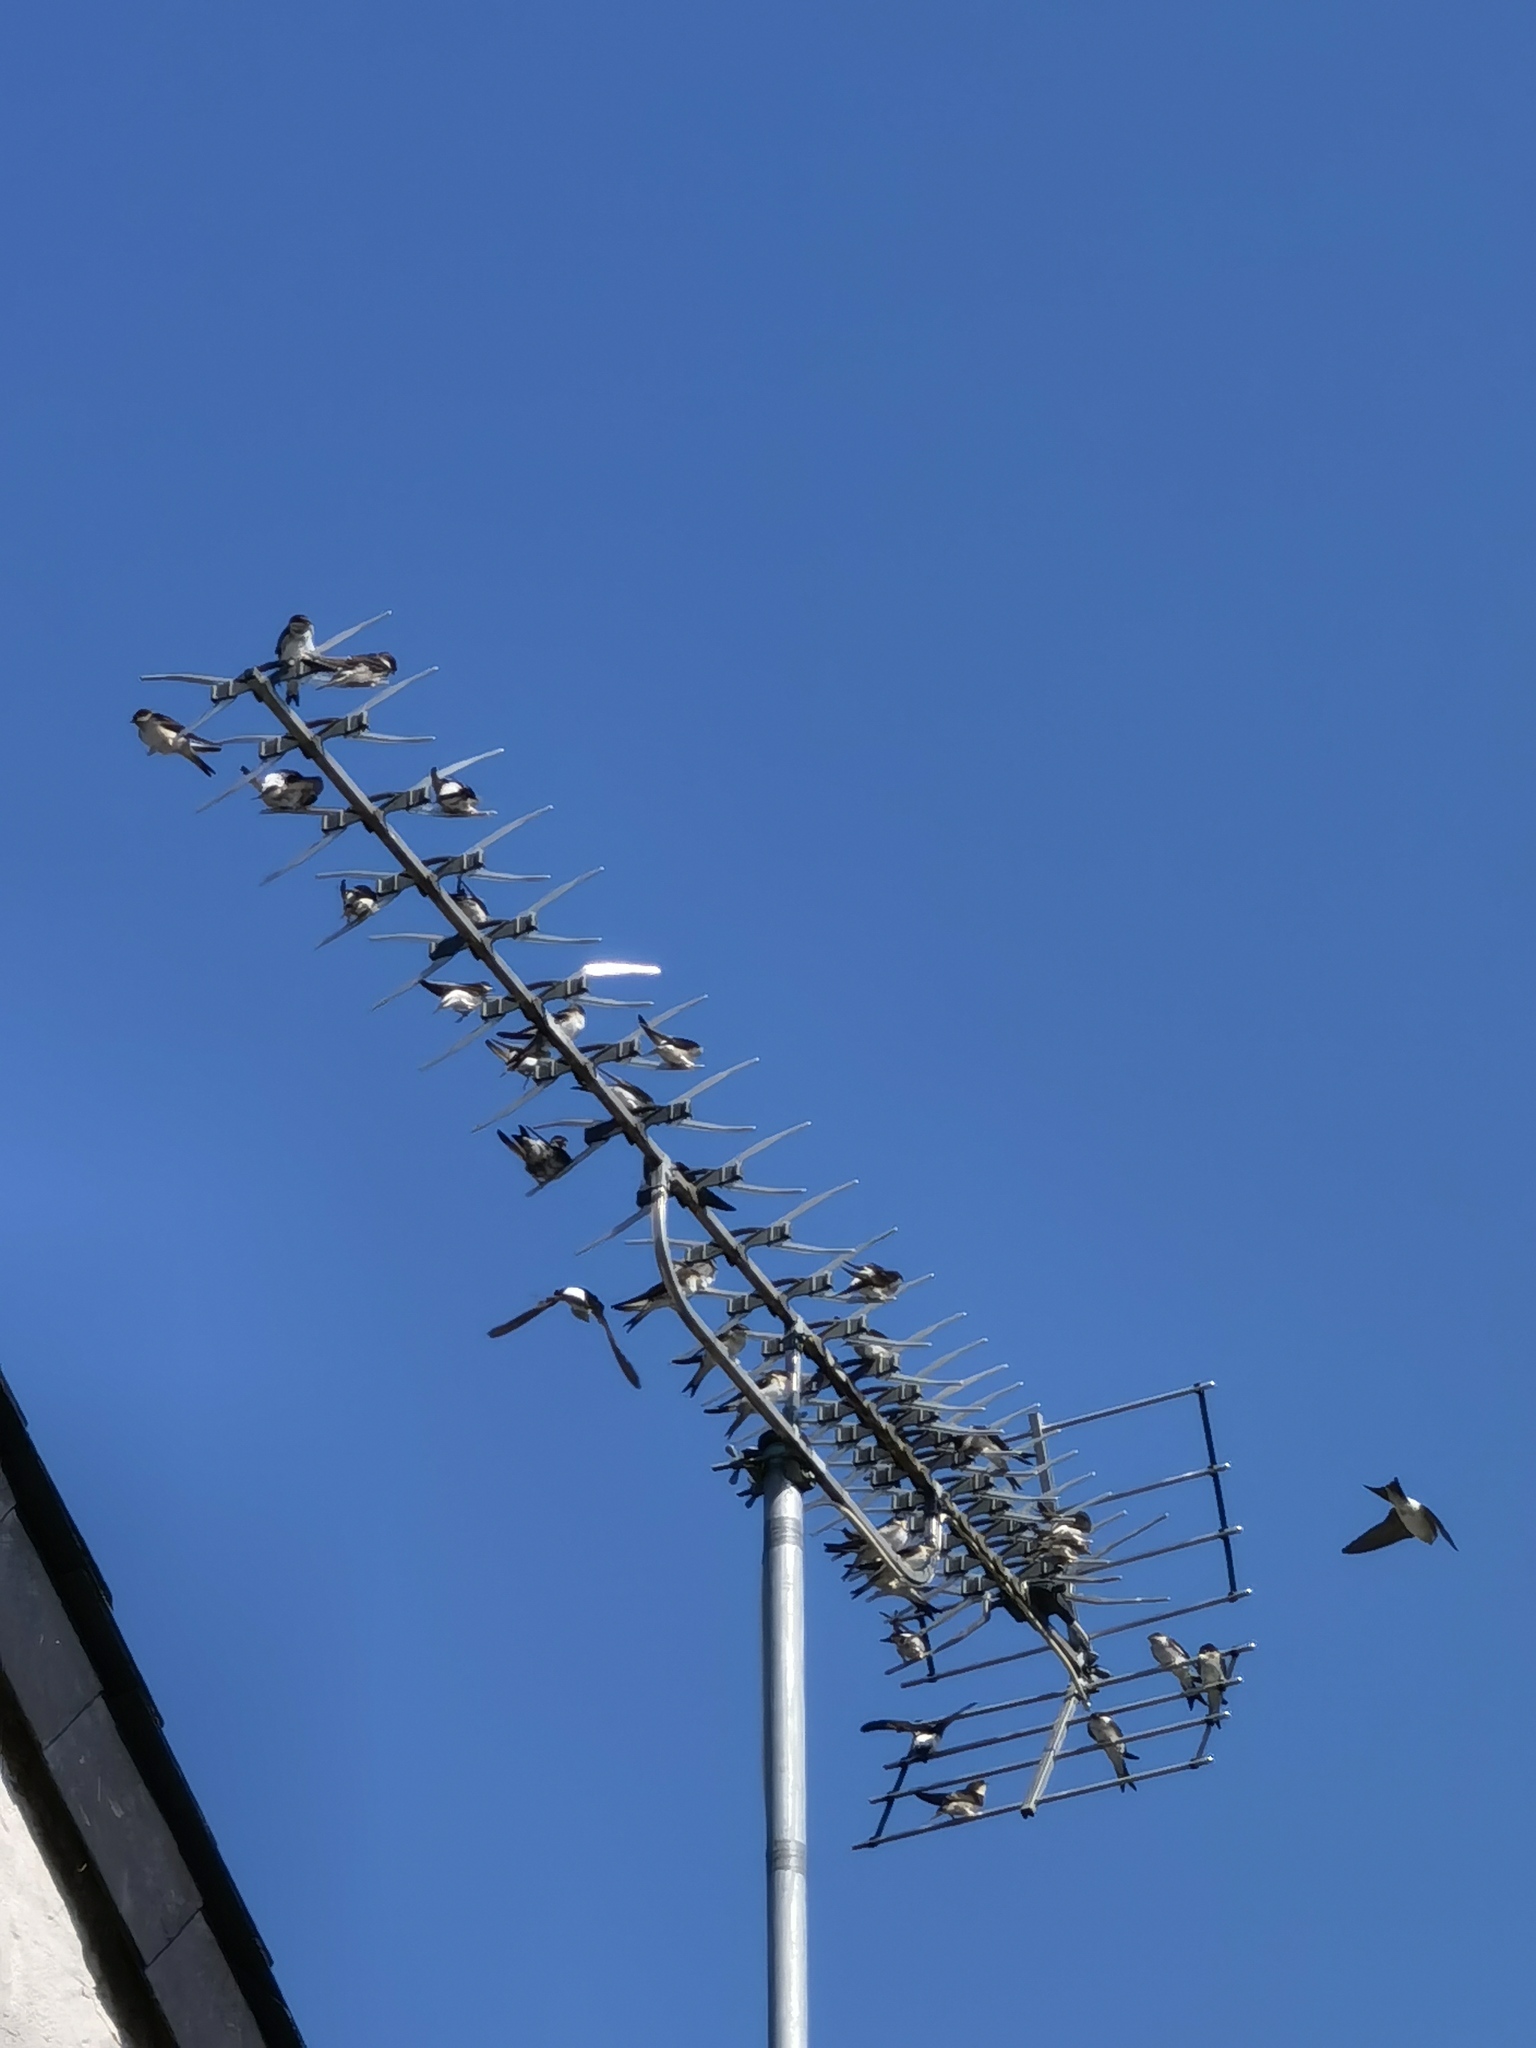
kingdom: Animalia
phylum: Chordata
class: Aves
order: Passeriformes
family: Hirundinidae
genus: Delichon
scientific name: Delichon urbicum
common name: Common house martin
